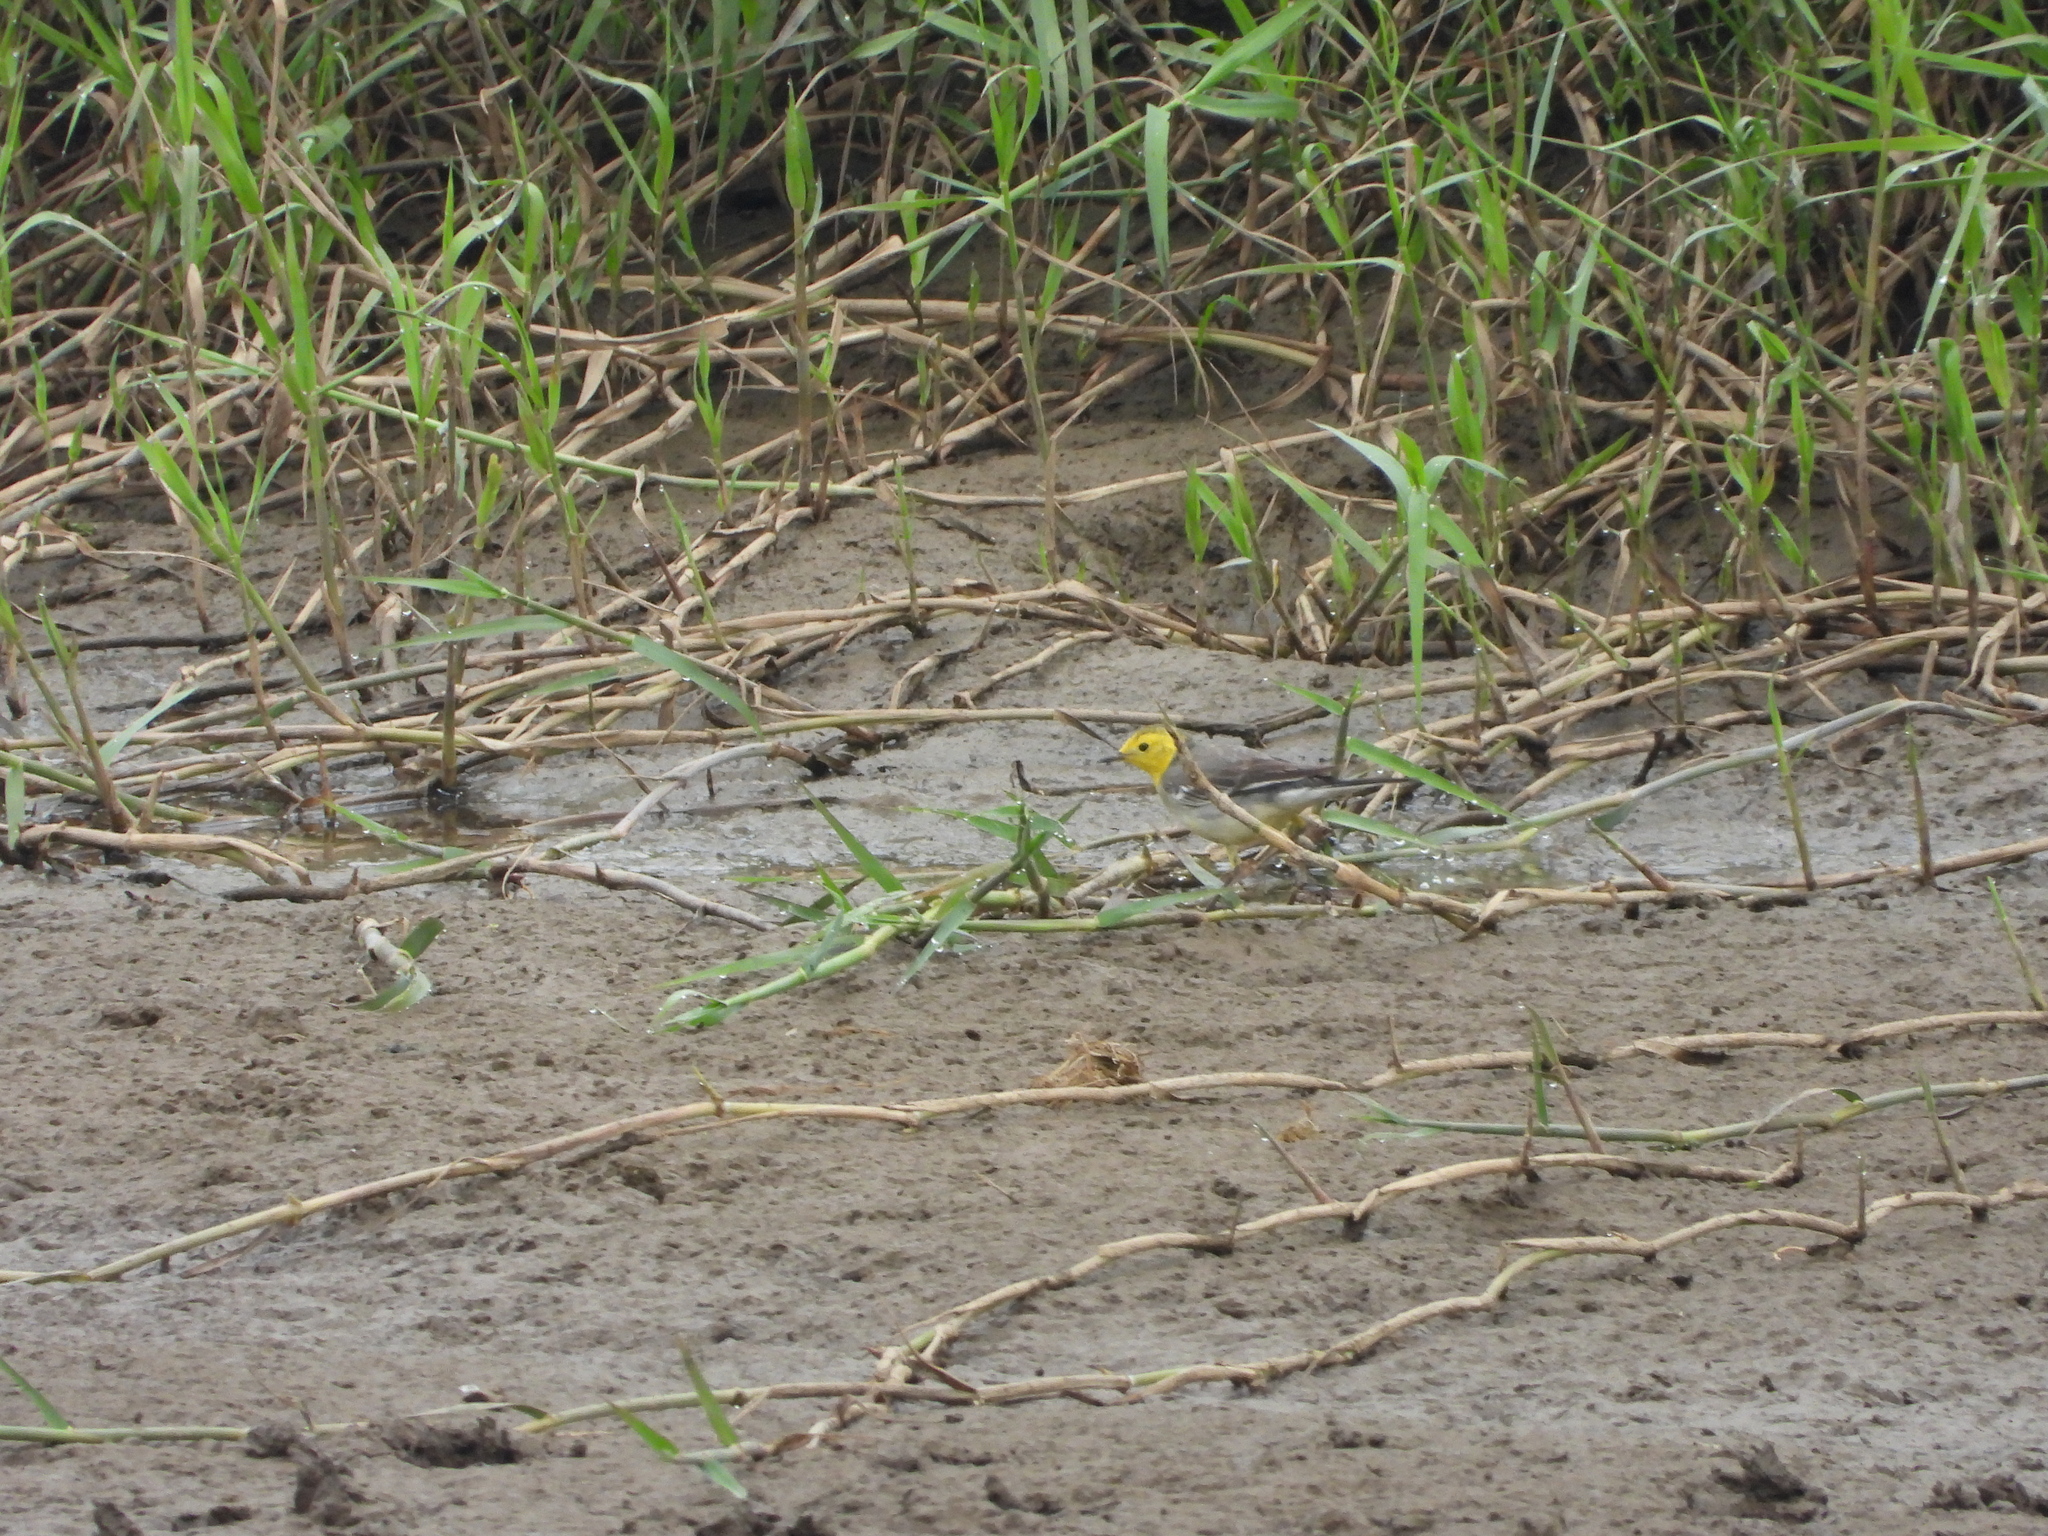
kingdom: Animalia
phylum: Chordata
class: Aves
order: Passeriformes
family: Motacillidae
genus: Motacilla
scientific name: Motacilla citreola
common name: Citrine wagtail
